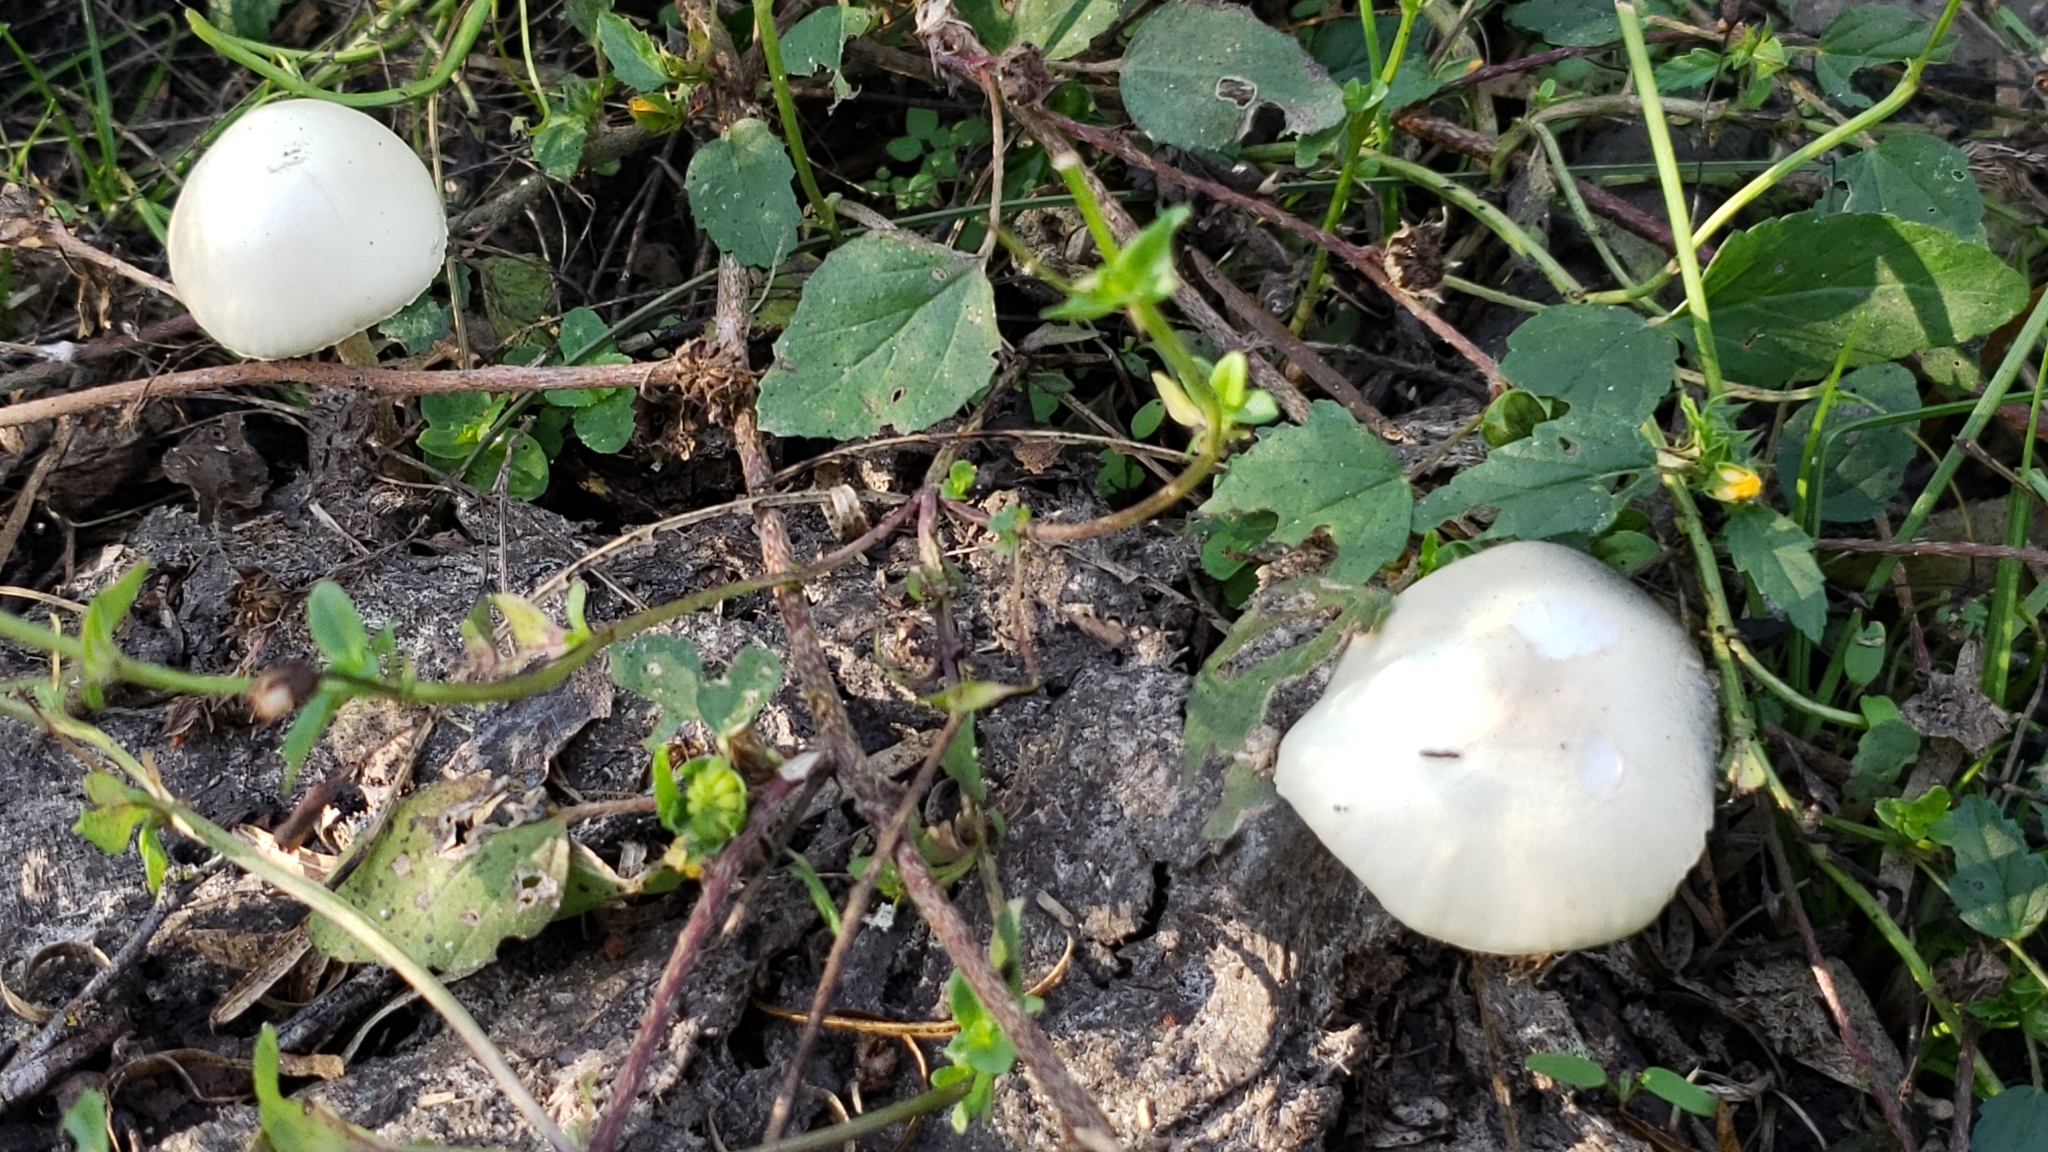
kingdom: Fungi
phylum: Basidiomycota
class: Agaricomycetes
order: Agaricales
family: Bolbitiaceae
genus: Panaeolus
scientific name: Panaeolus antillarum
